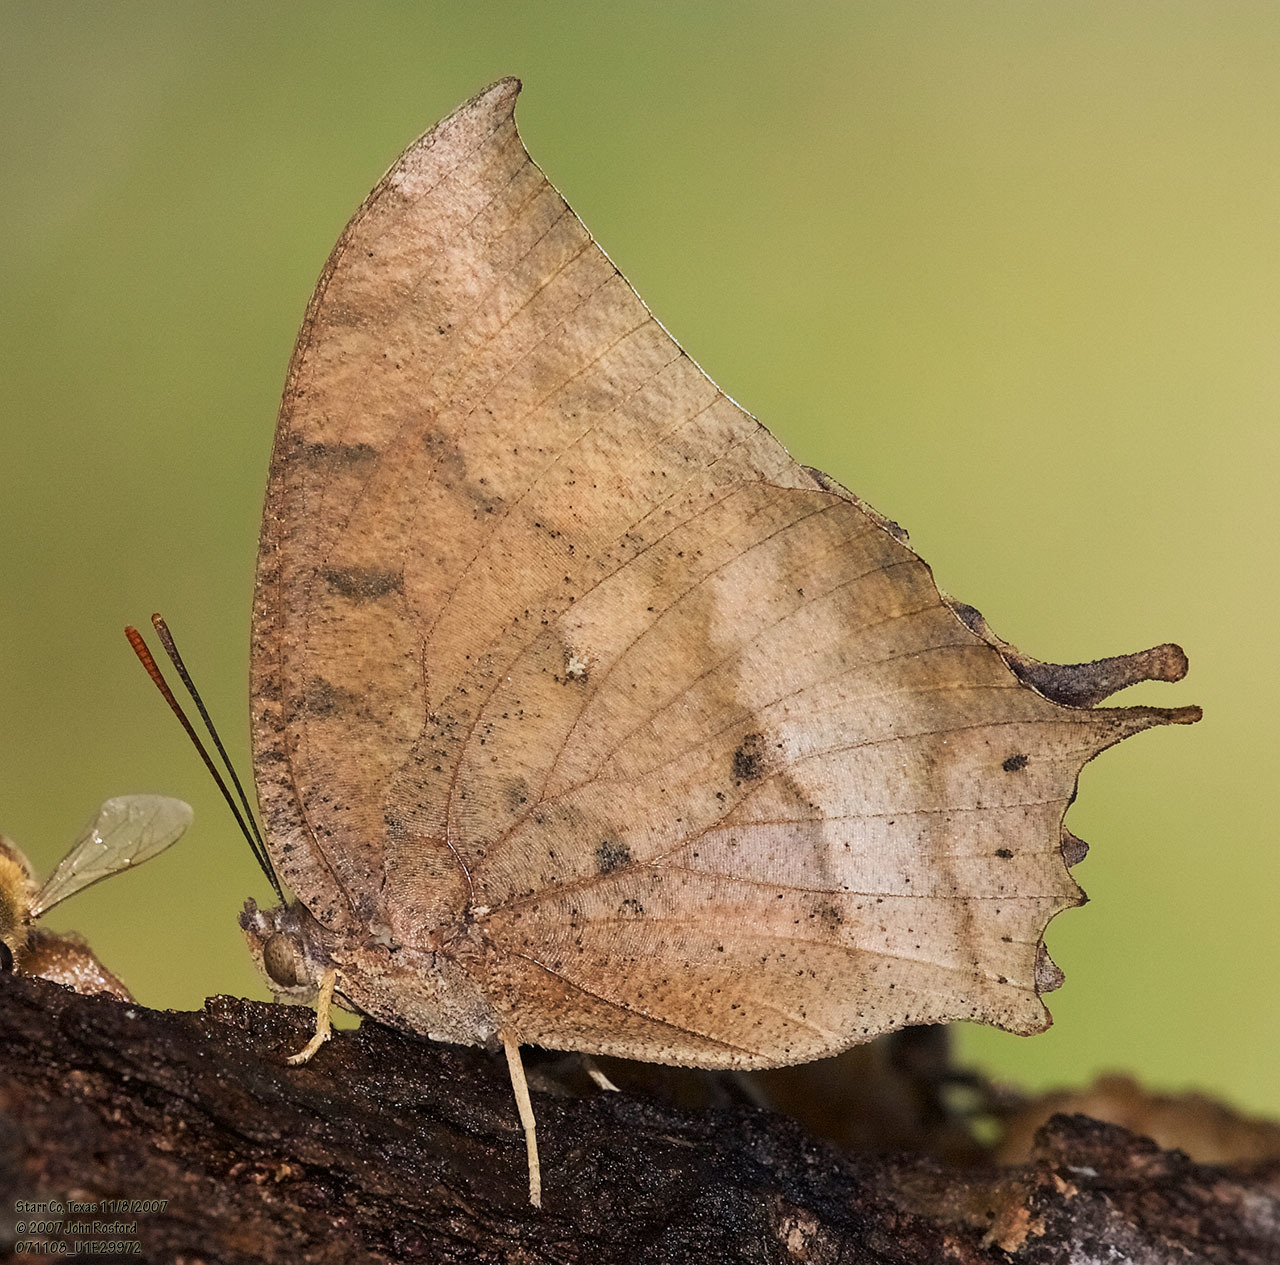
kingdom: Animalia
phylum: Arthropoda
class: Insecta
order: Lepidoptera
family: Nymphalidae
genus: Anaea
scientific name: Anaea aidea
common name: Tropical leafwing
